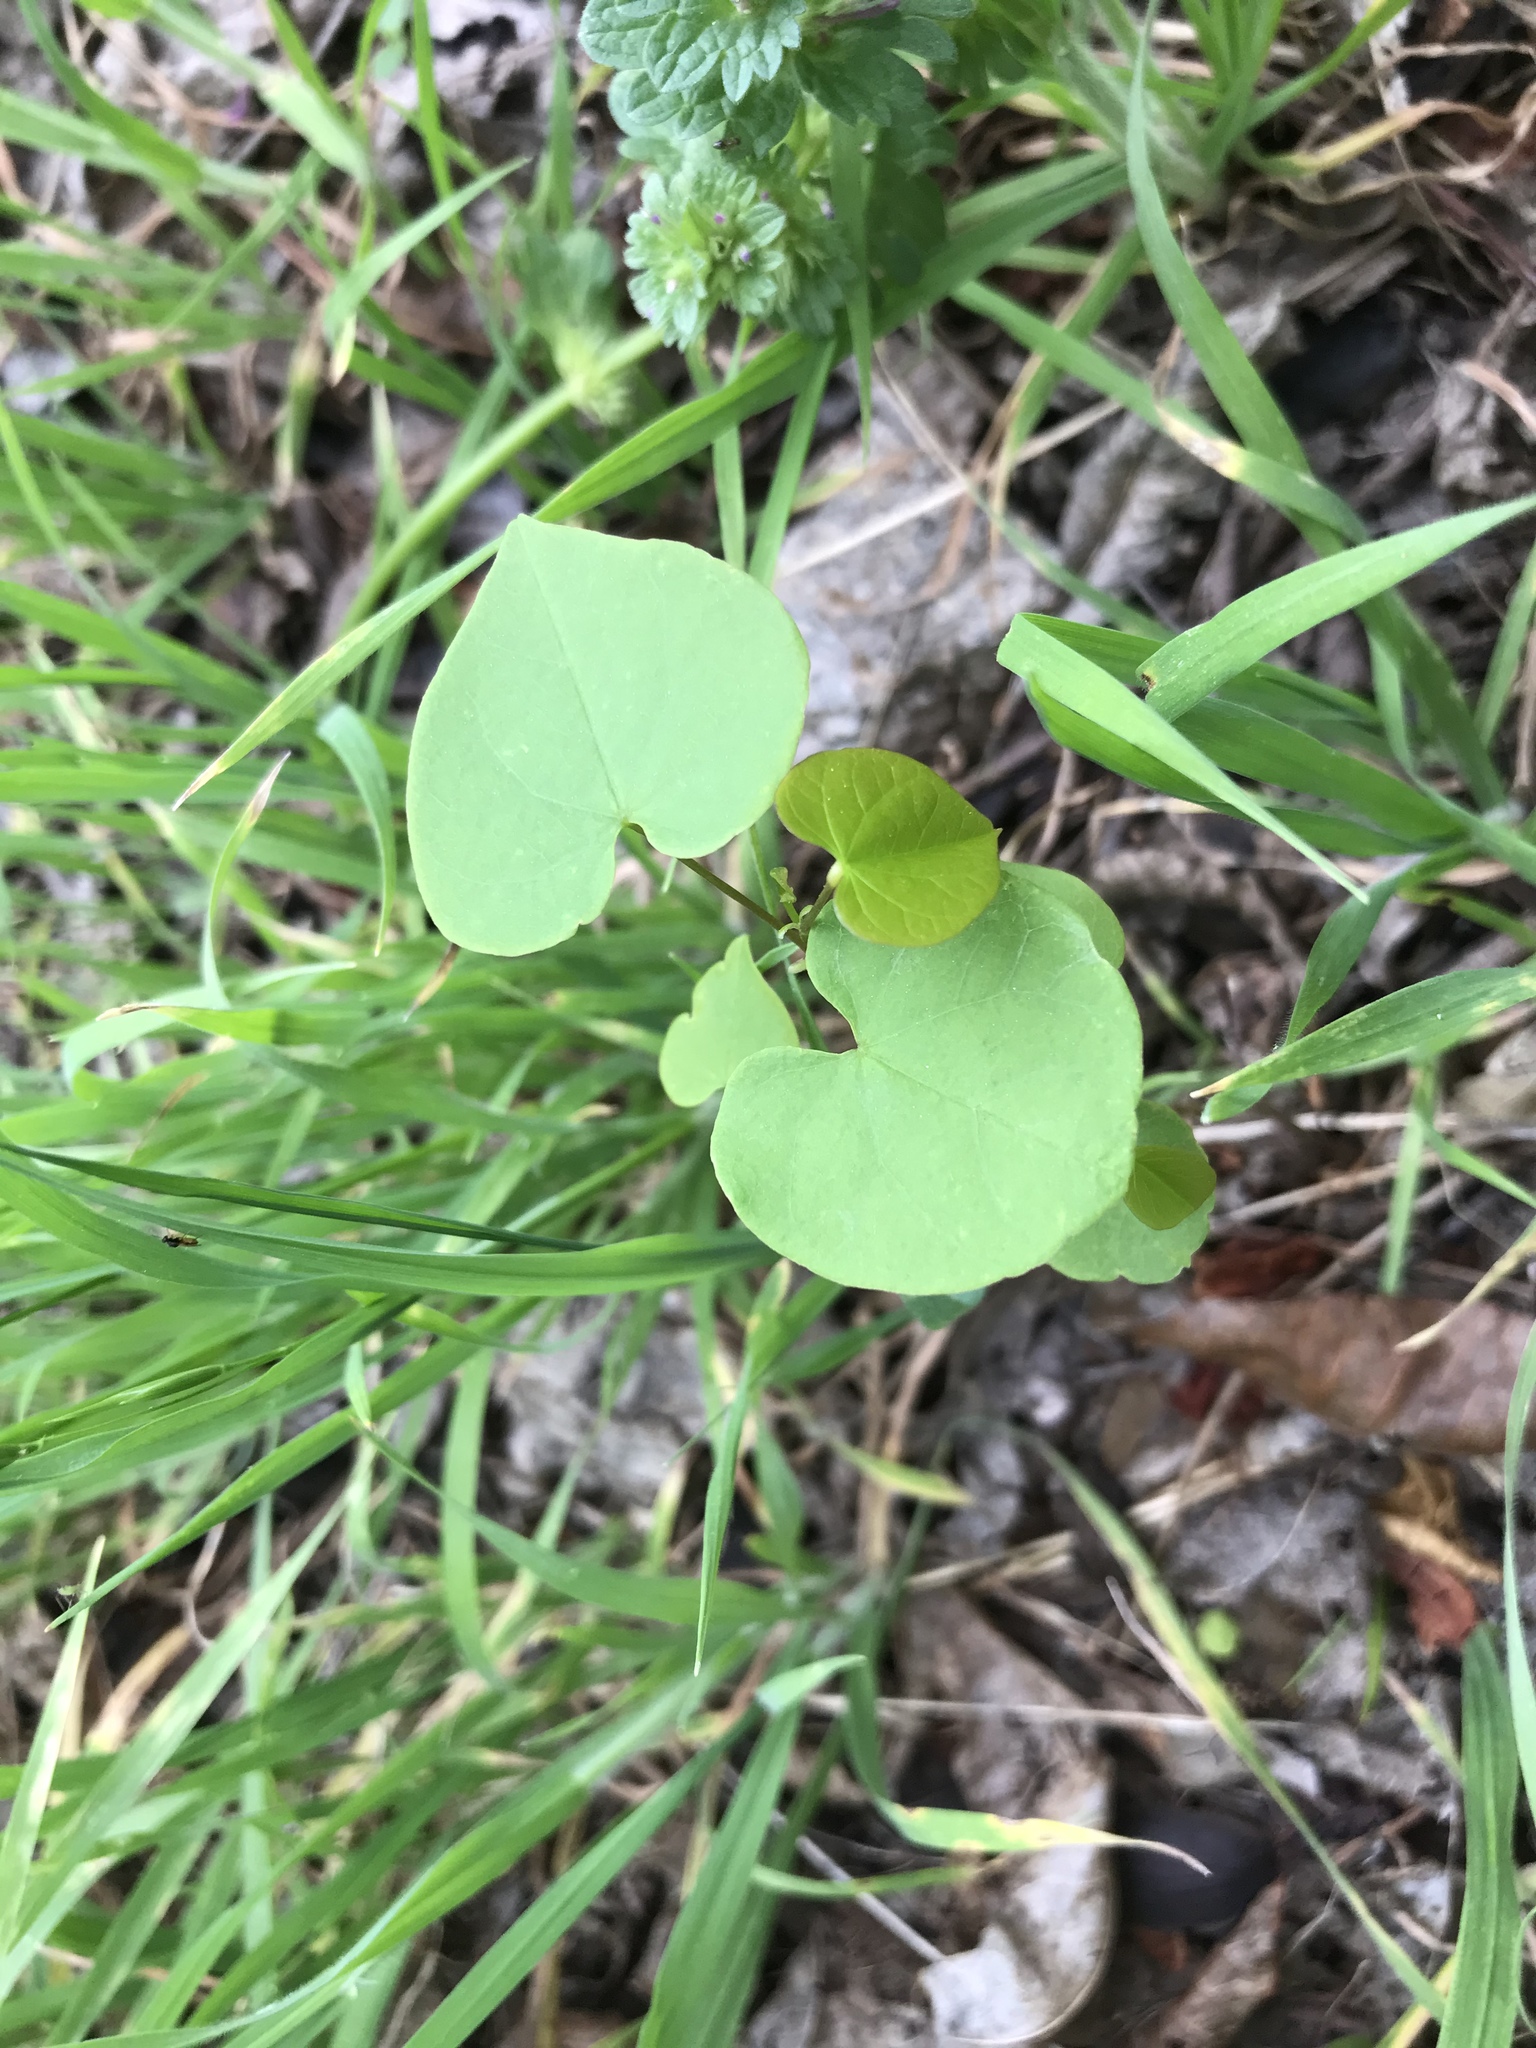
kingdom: Plantae
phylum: Tracheophyta
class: Magnoliopsida
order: Fabales
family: Fabaceae
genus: Cercis
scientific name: Cercis canadensis
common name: Eastern redbud
